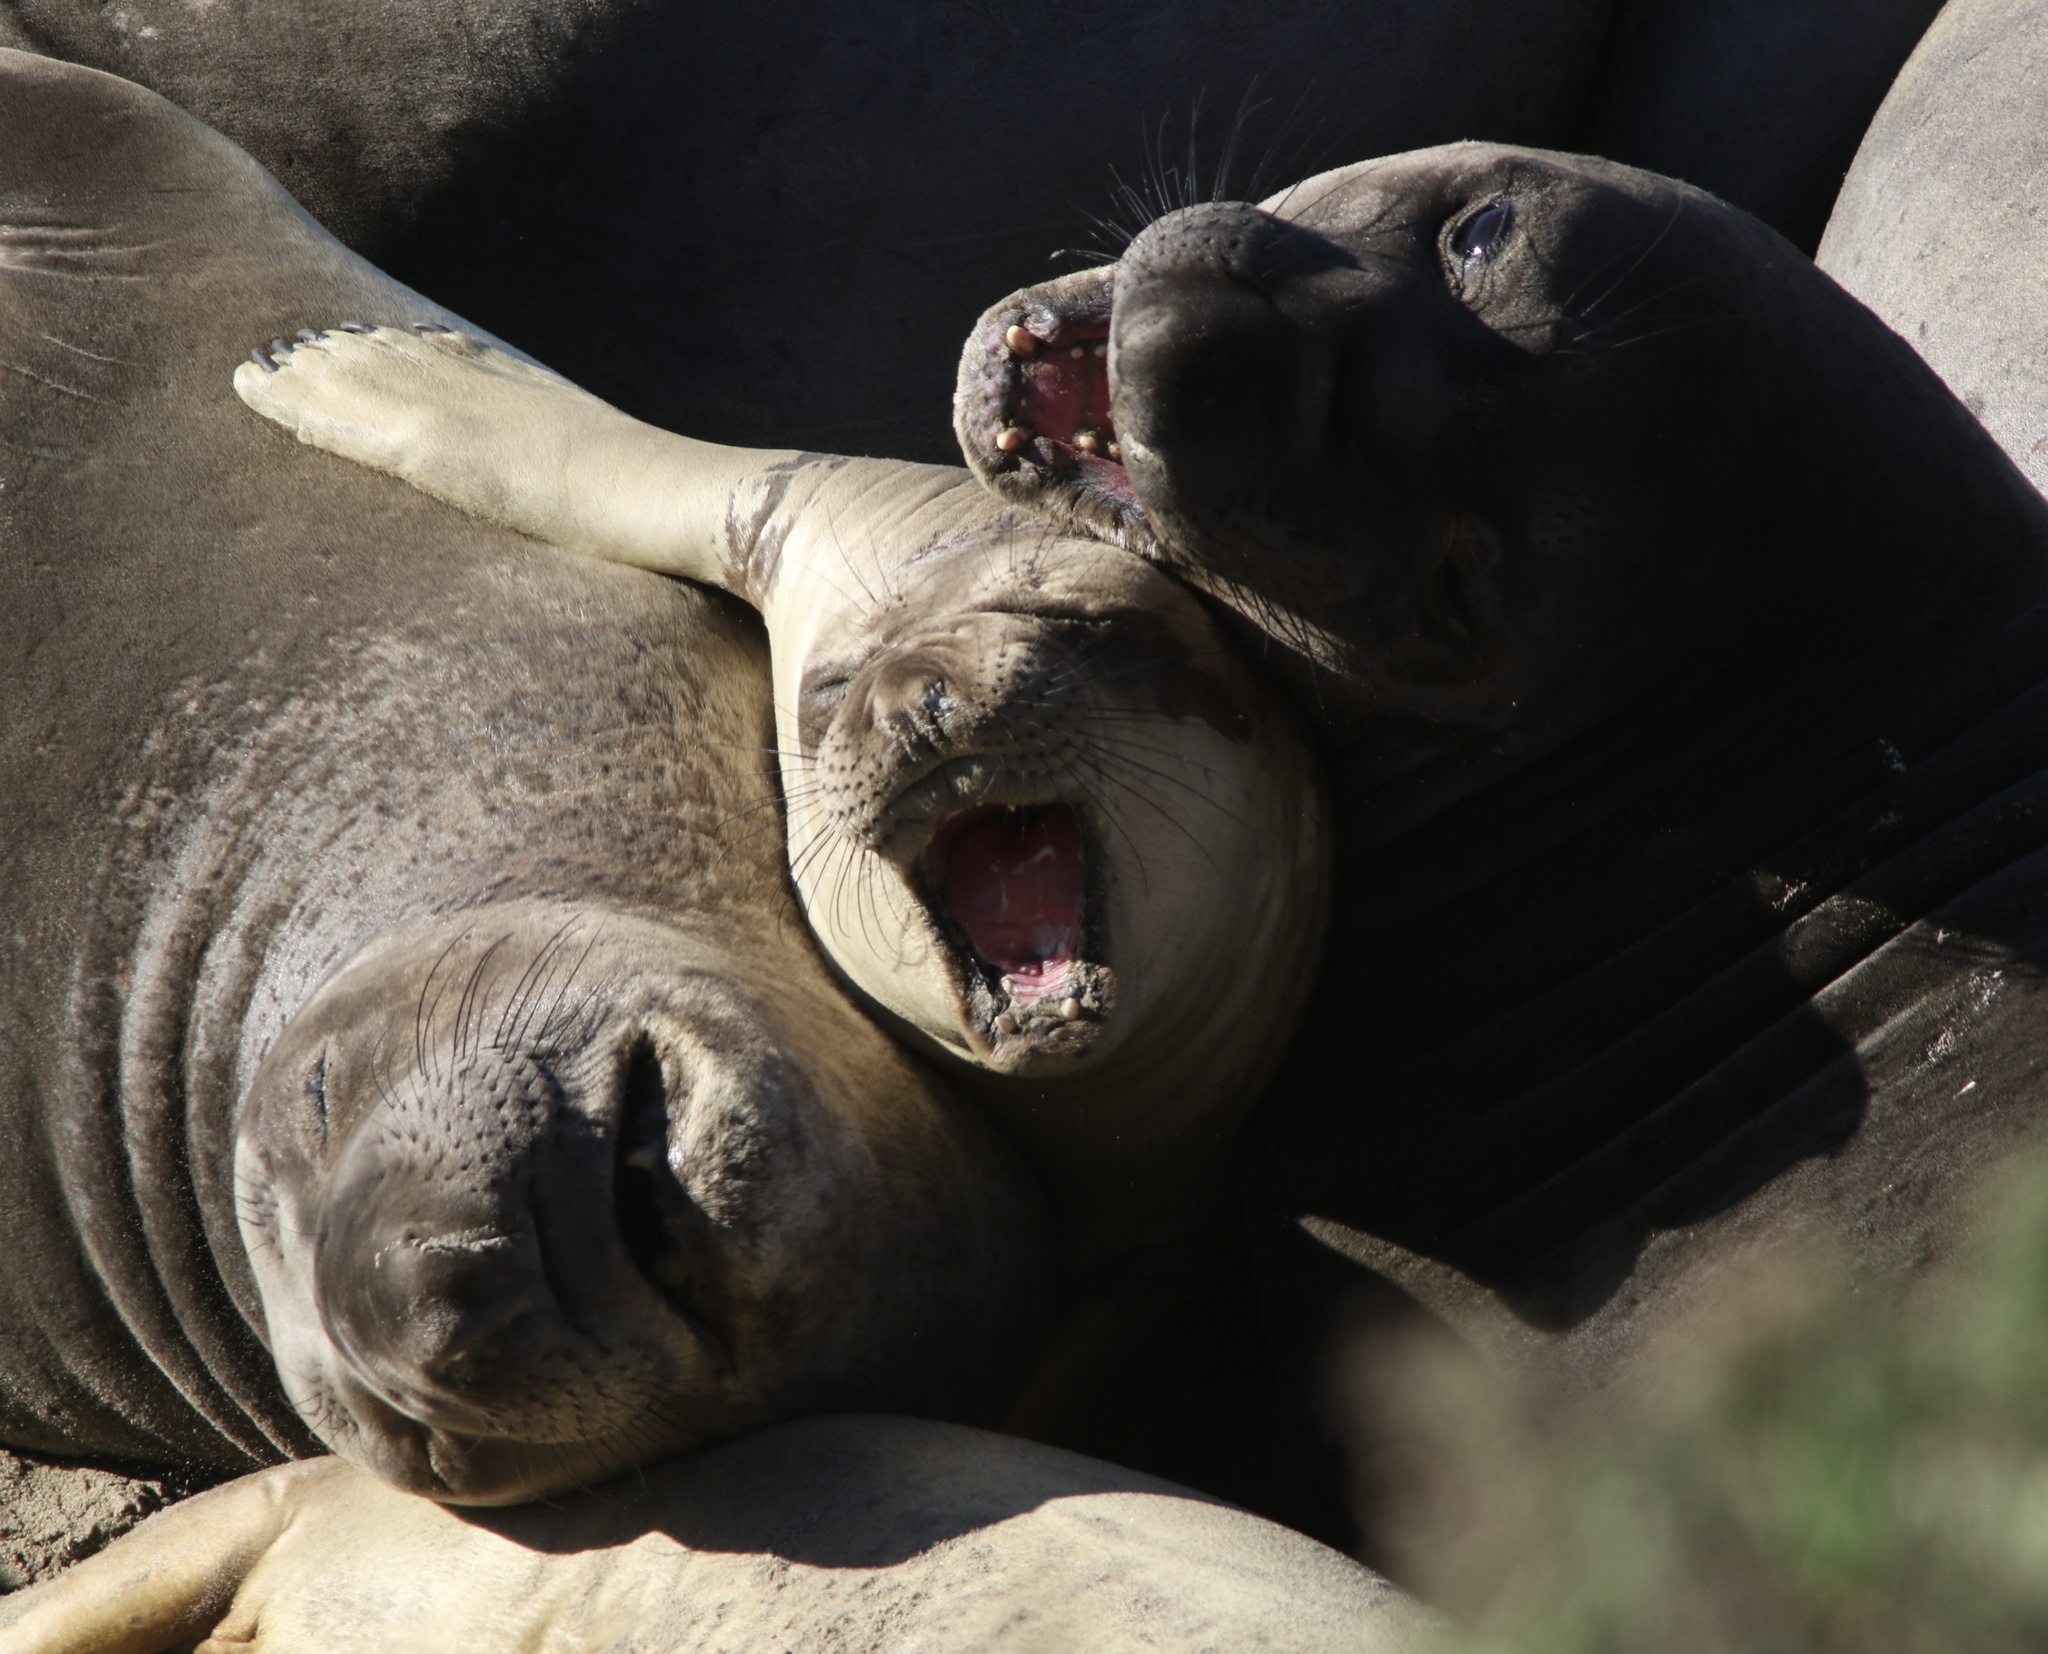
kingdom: Animalia
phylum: Chordata
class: Mammalia
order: Carnivora
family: Phocidae
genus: Mirounga
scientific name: Mirounga angustirostris
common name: Northern elephant seal
